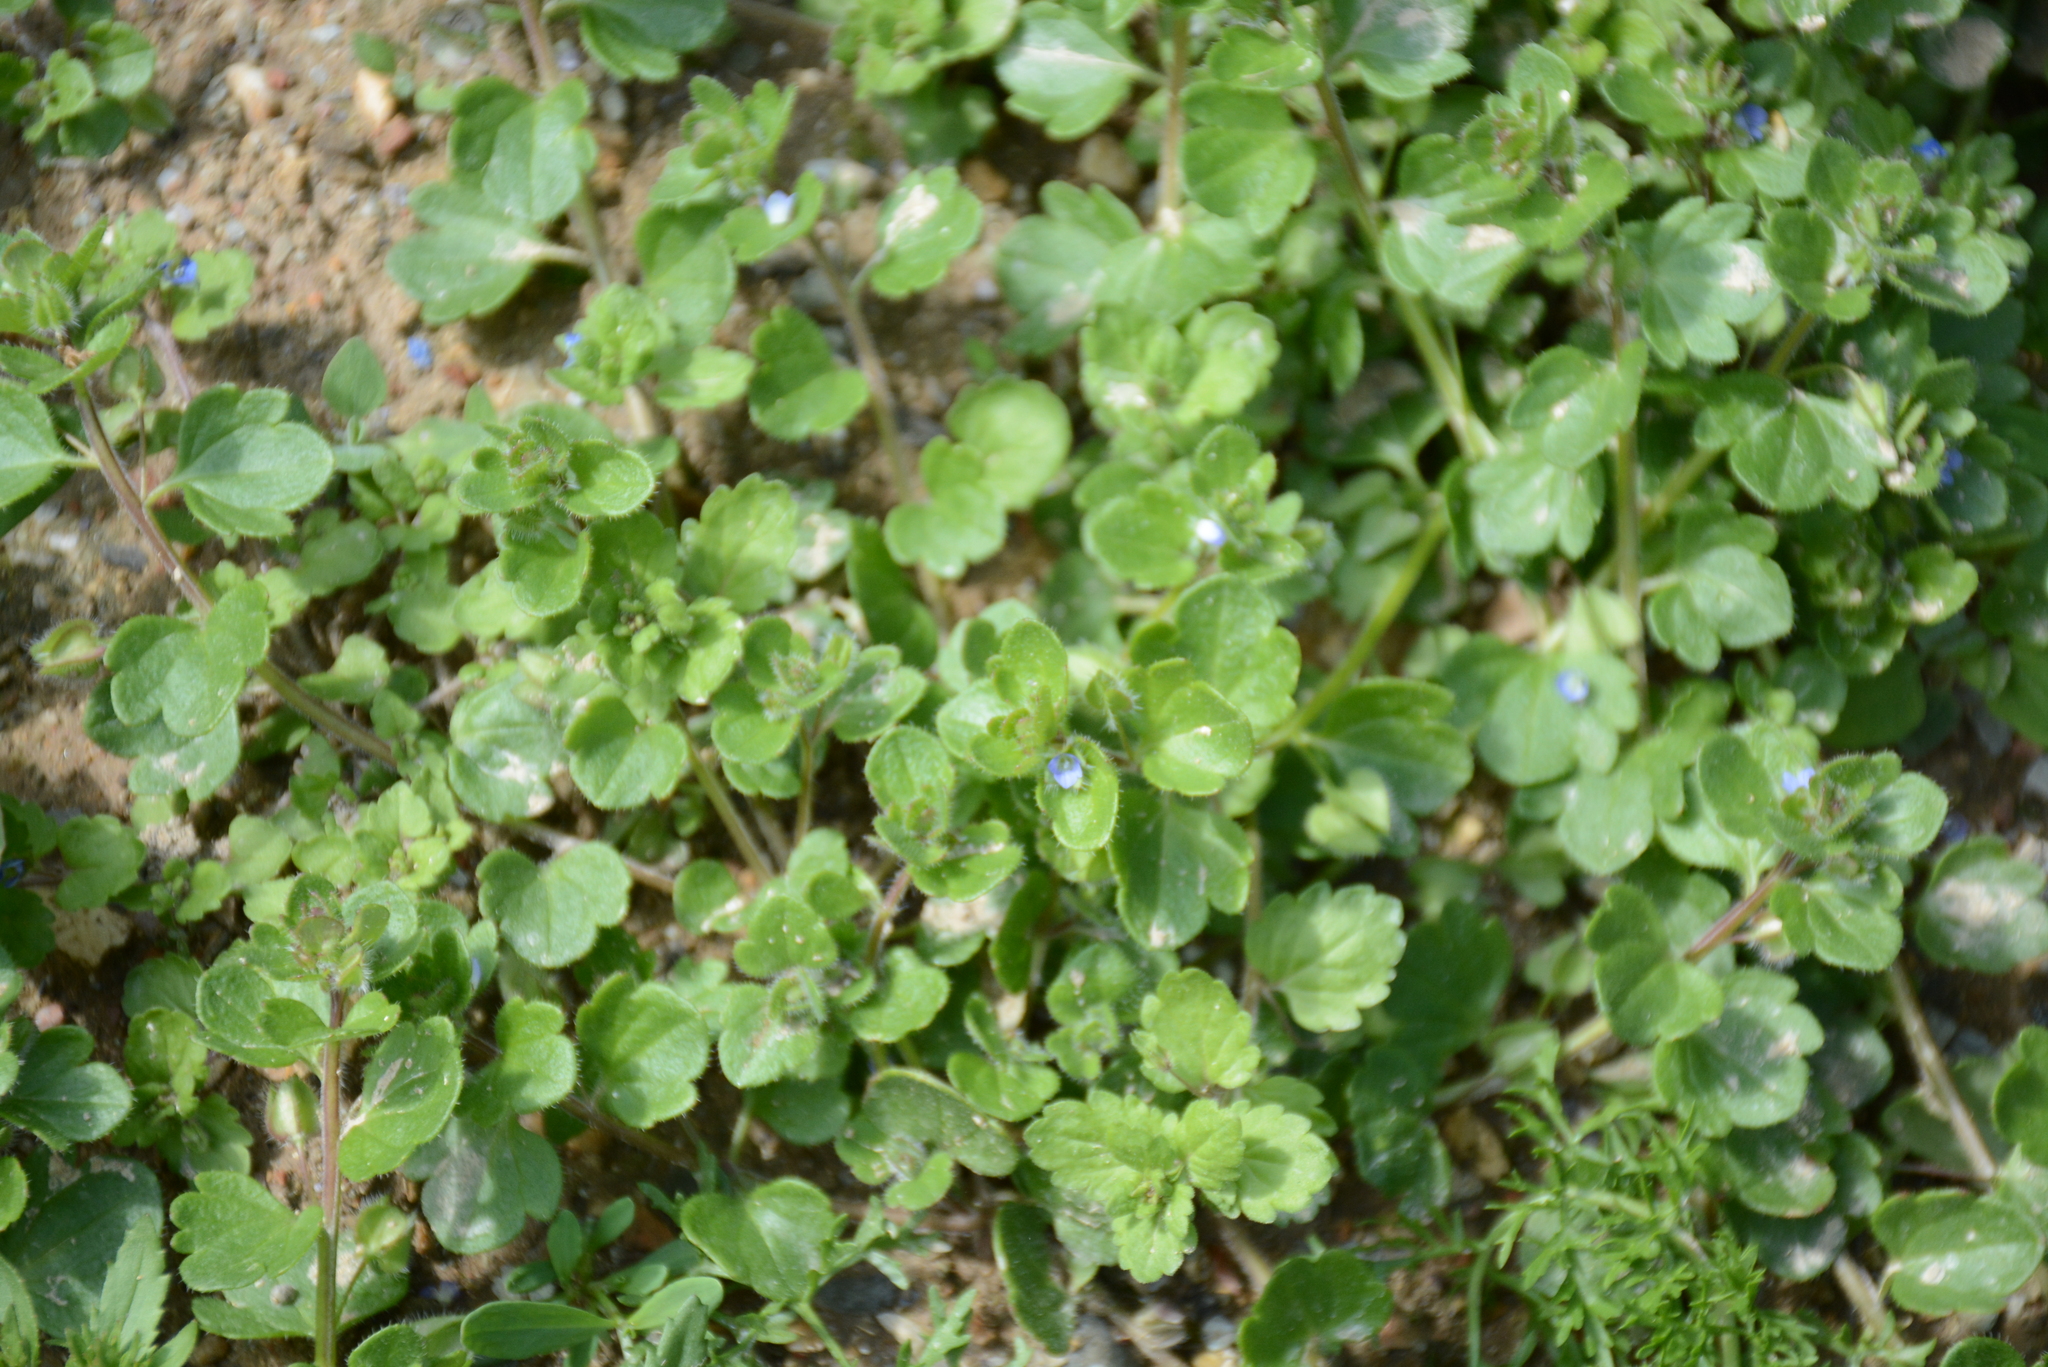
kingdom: Plantae
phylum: Tracheophyta
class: Magnoliopsida
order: Lamiales
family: Plantaginaceae
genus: Veronica
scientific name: Veronica hederifolia
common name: Ivy-leaved speedwell
